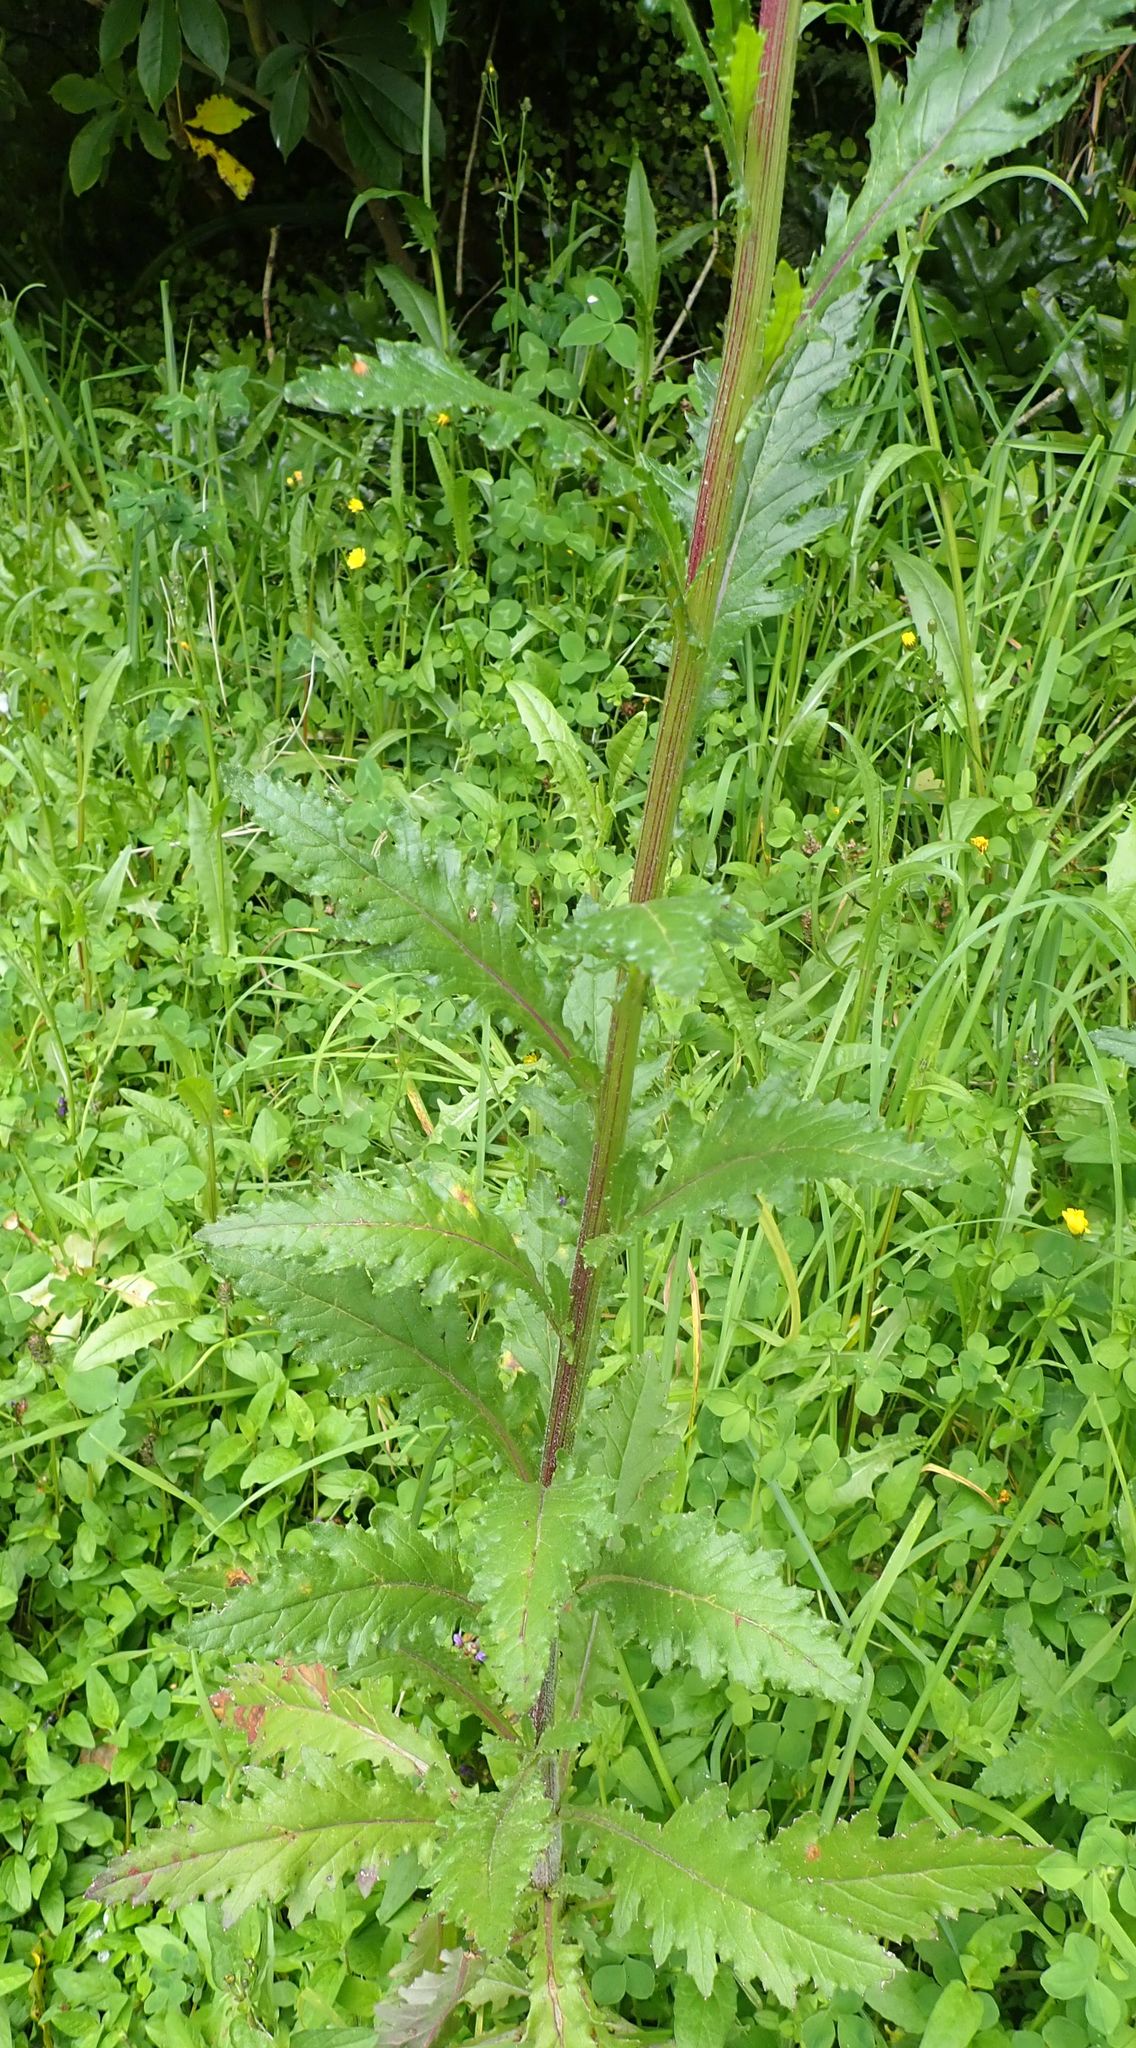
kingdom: Plantae
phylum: Tracheophyta
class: Magnoliopsida
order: Asterales
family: Asteraceae
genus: Senecio
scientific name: Senecio biserratus
